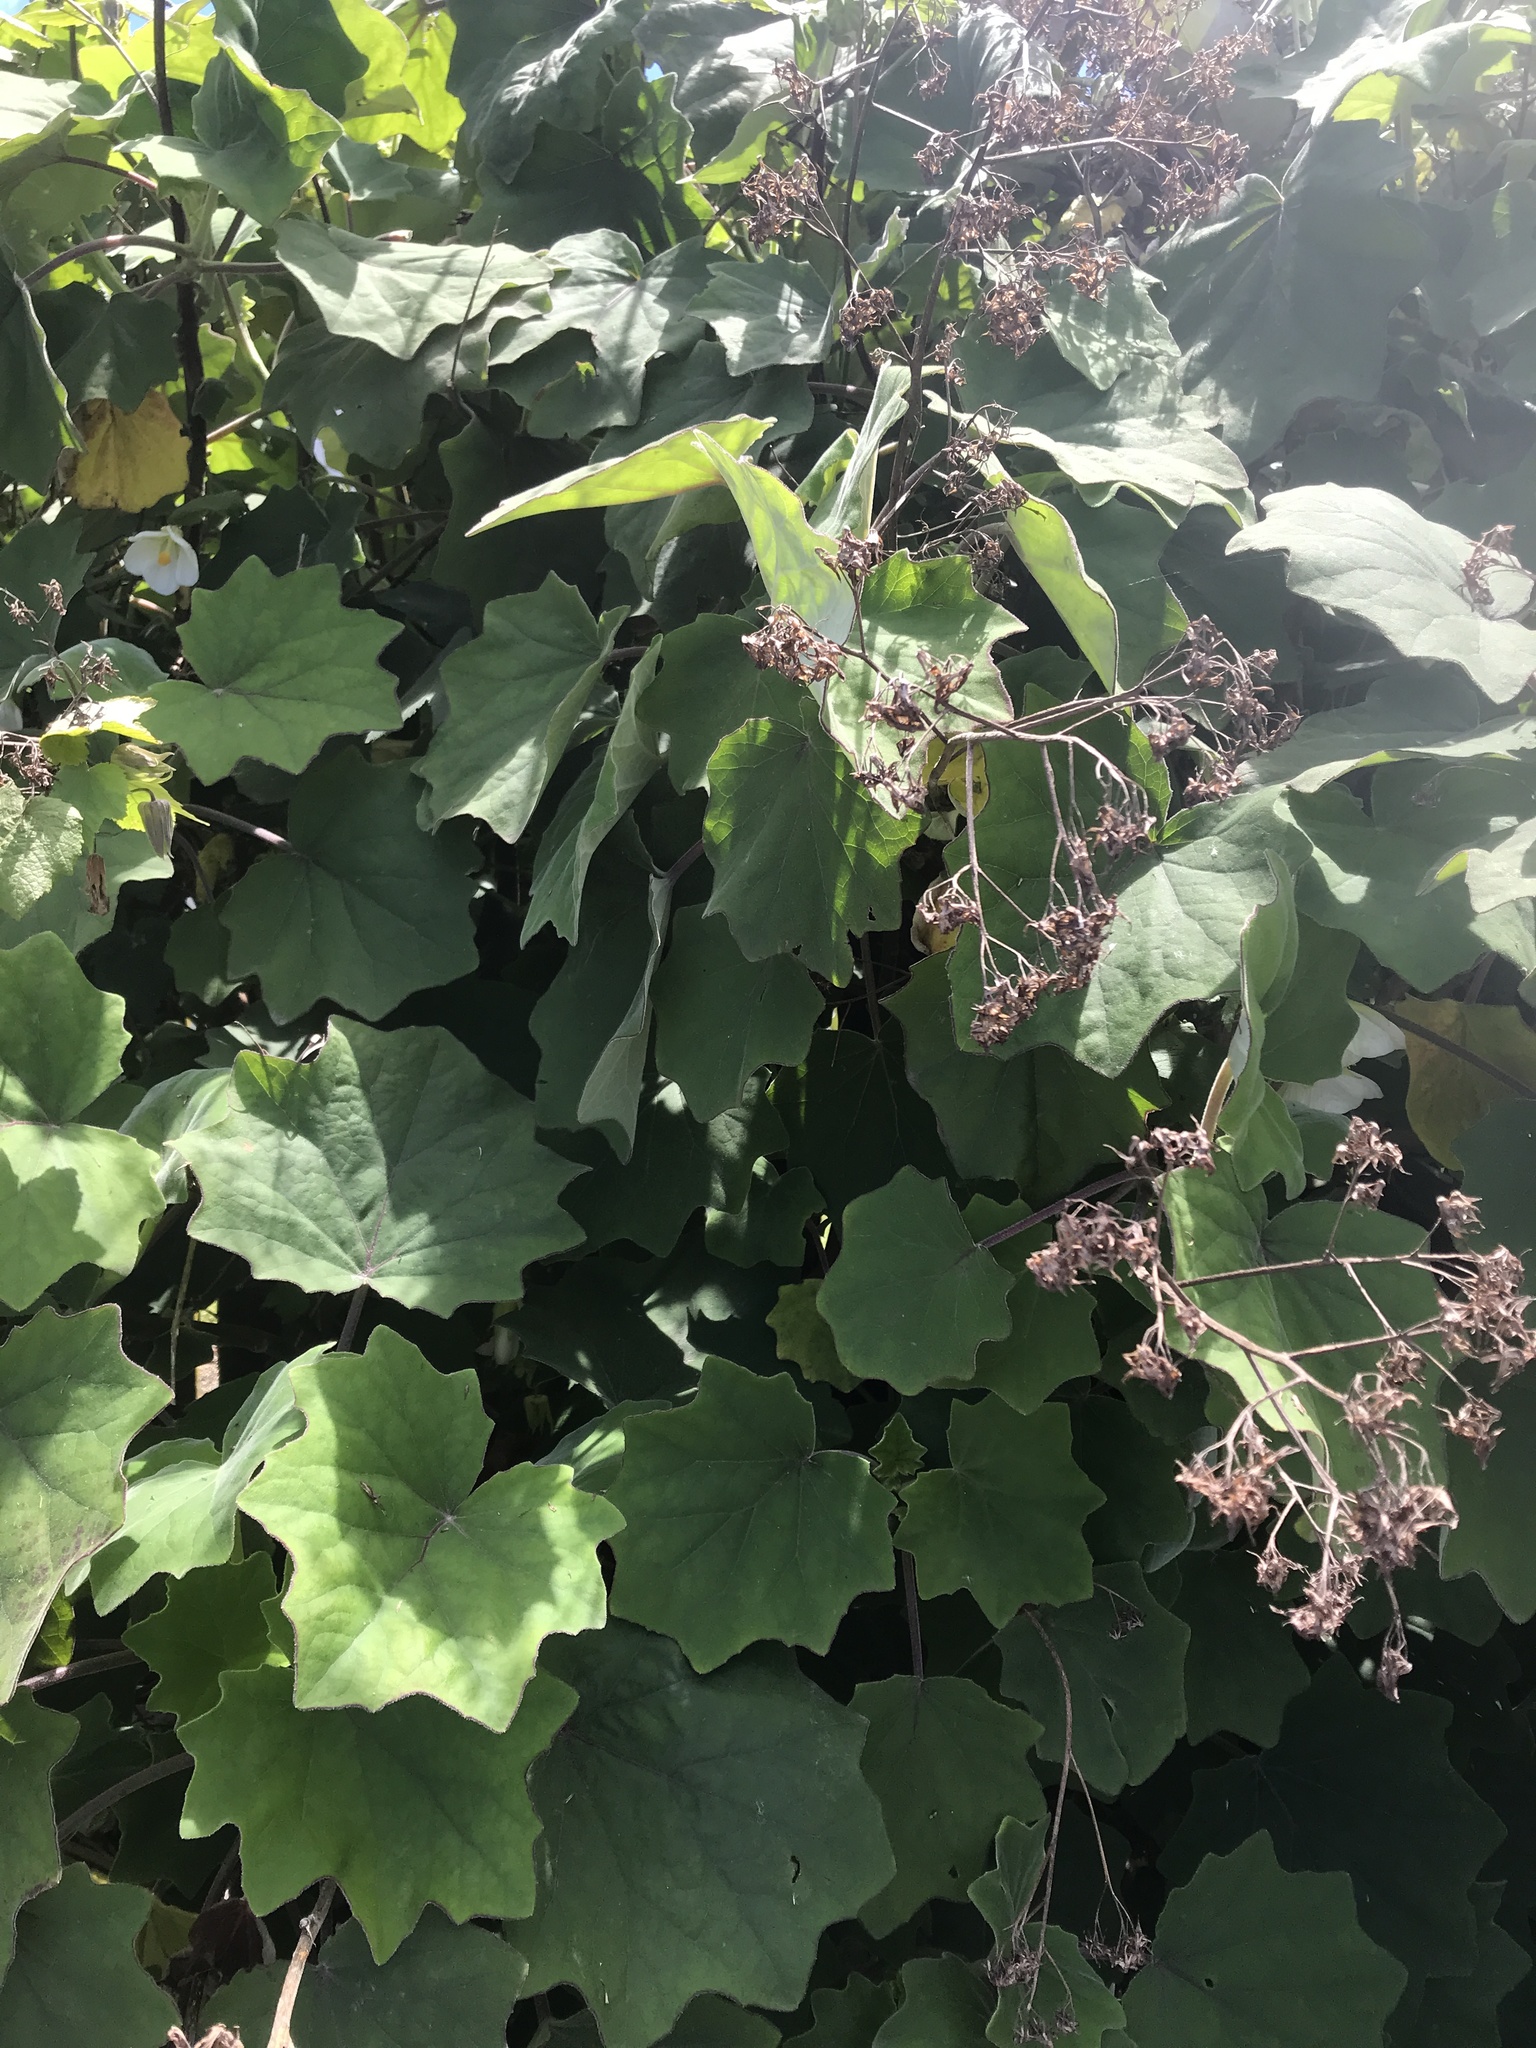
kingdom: Plantae
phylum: Tracheophyta
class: Magnoliopsida
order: Asterales
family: Asteraceae
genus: Roldana
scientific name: Roldana petasitis
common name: California-geranium
